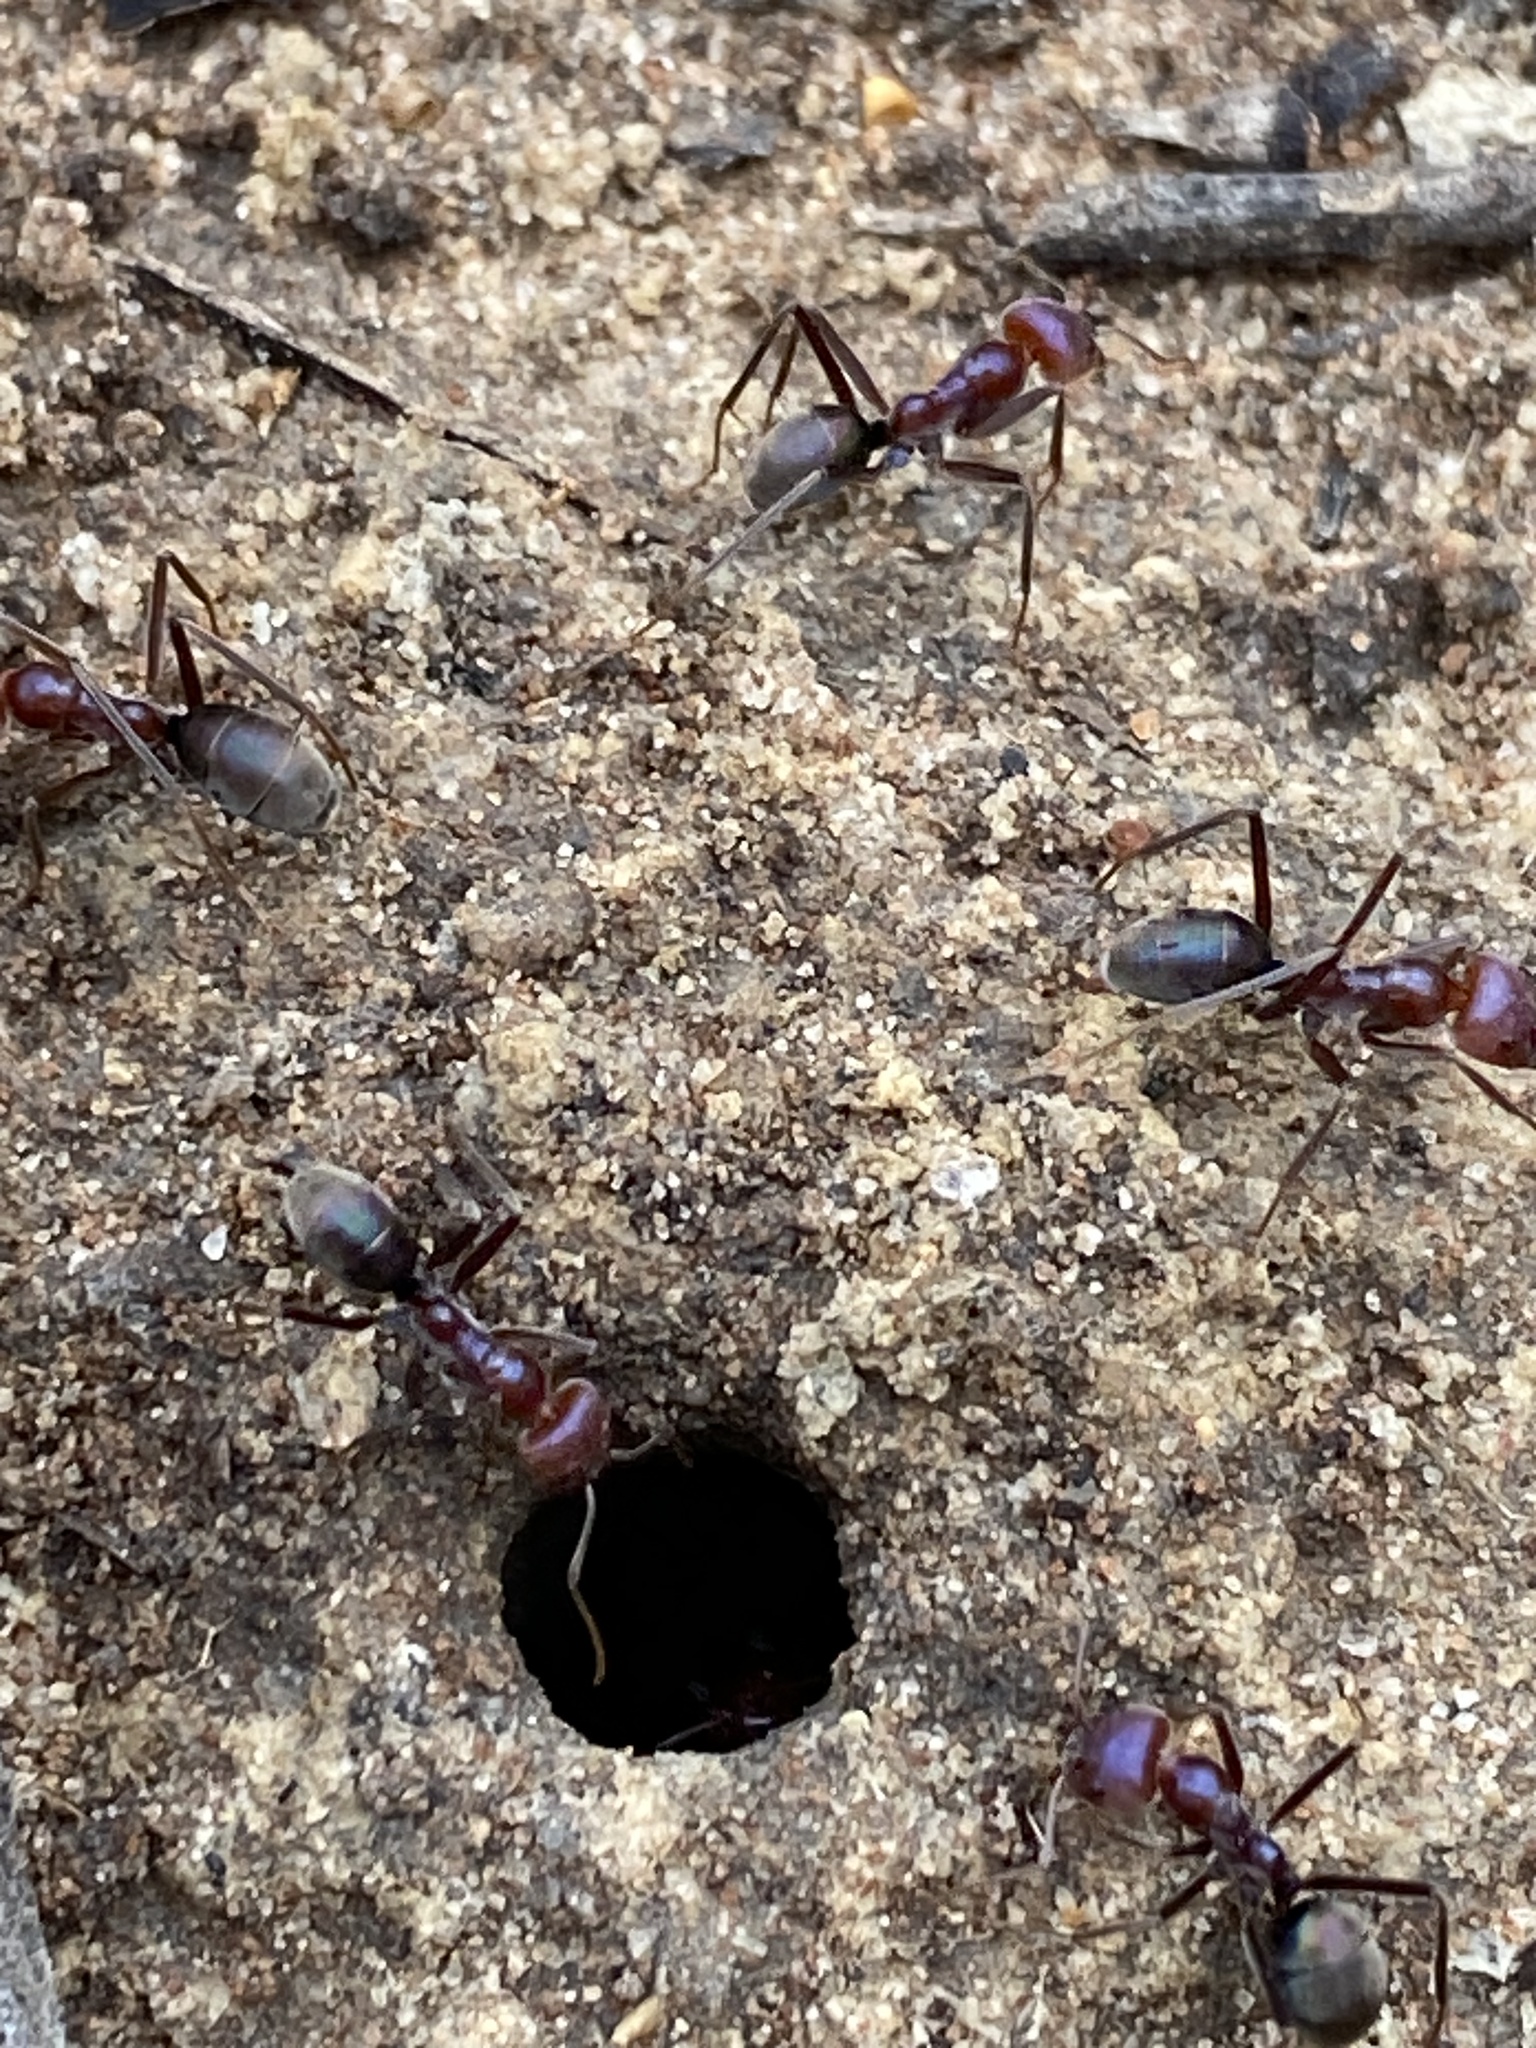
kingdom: Animalia
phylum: Arthropoda
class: Insecta
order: Hymenoptera
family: Formicidae
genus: Iridomyrmex
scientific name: Iridomyrmex purpureus
